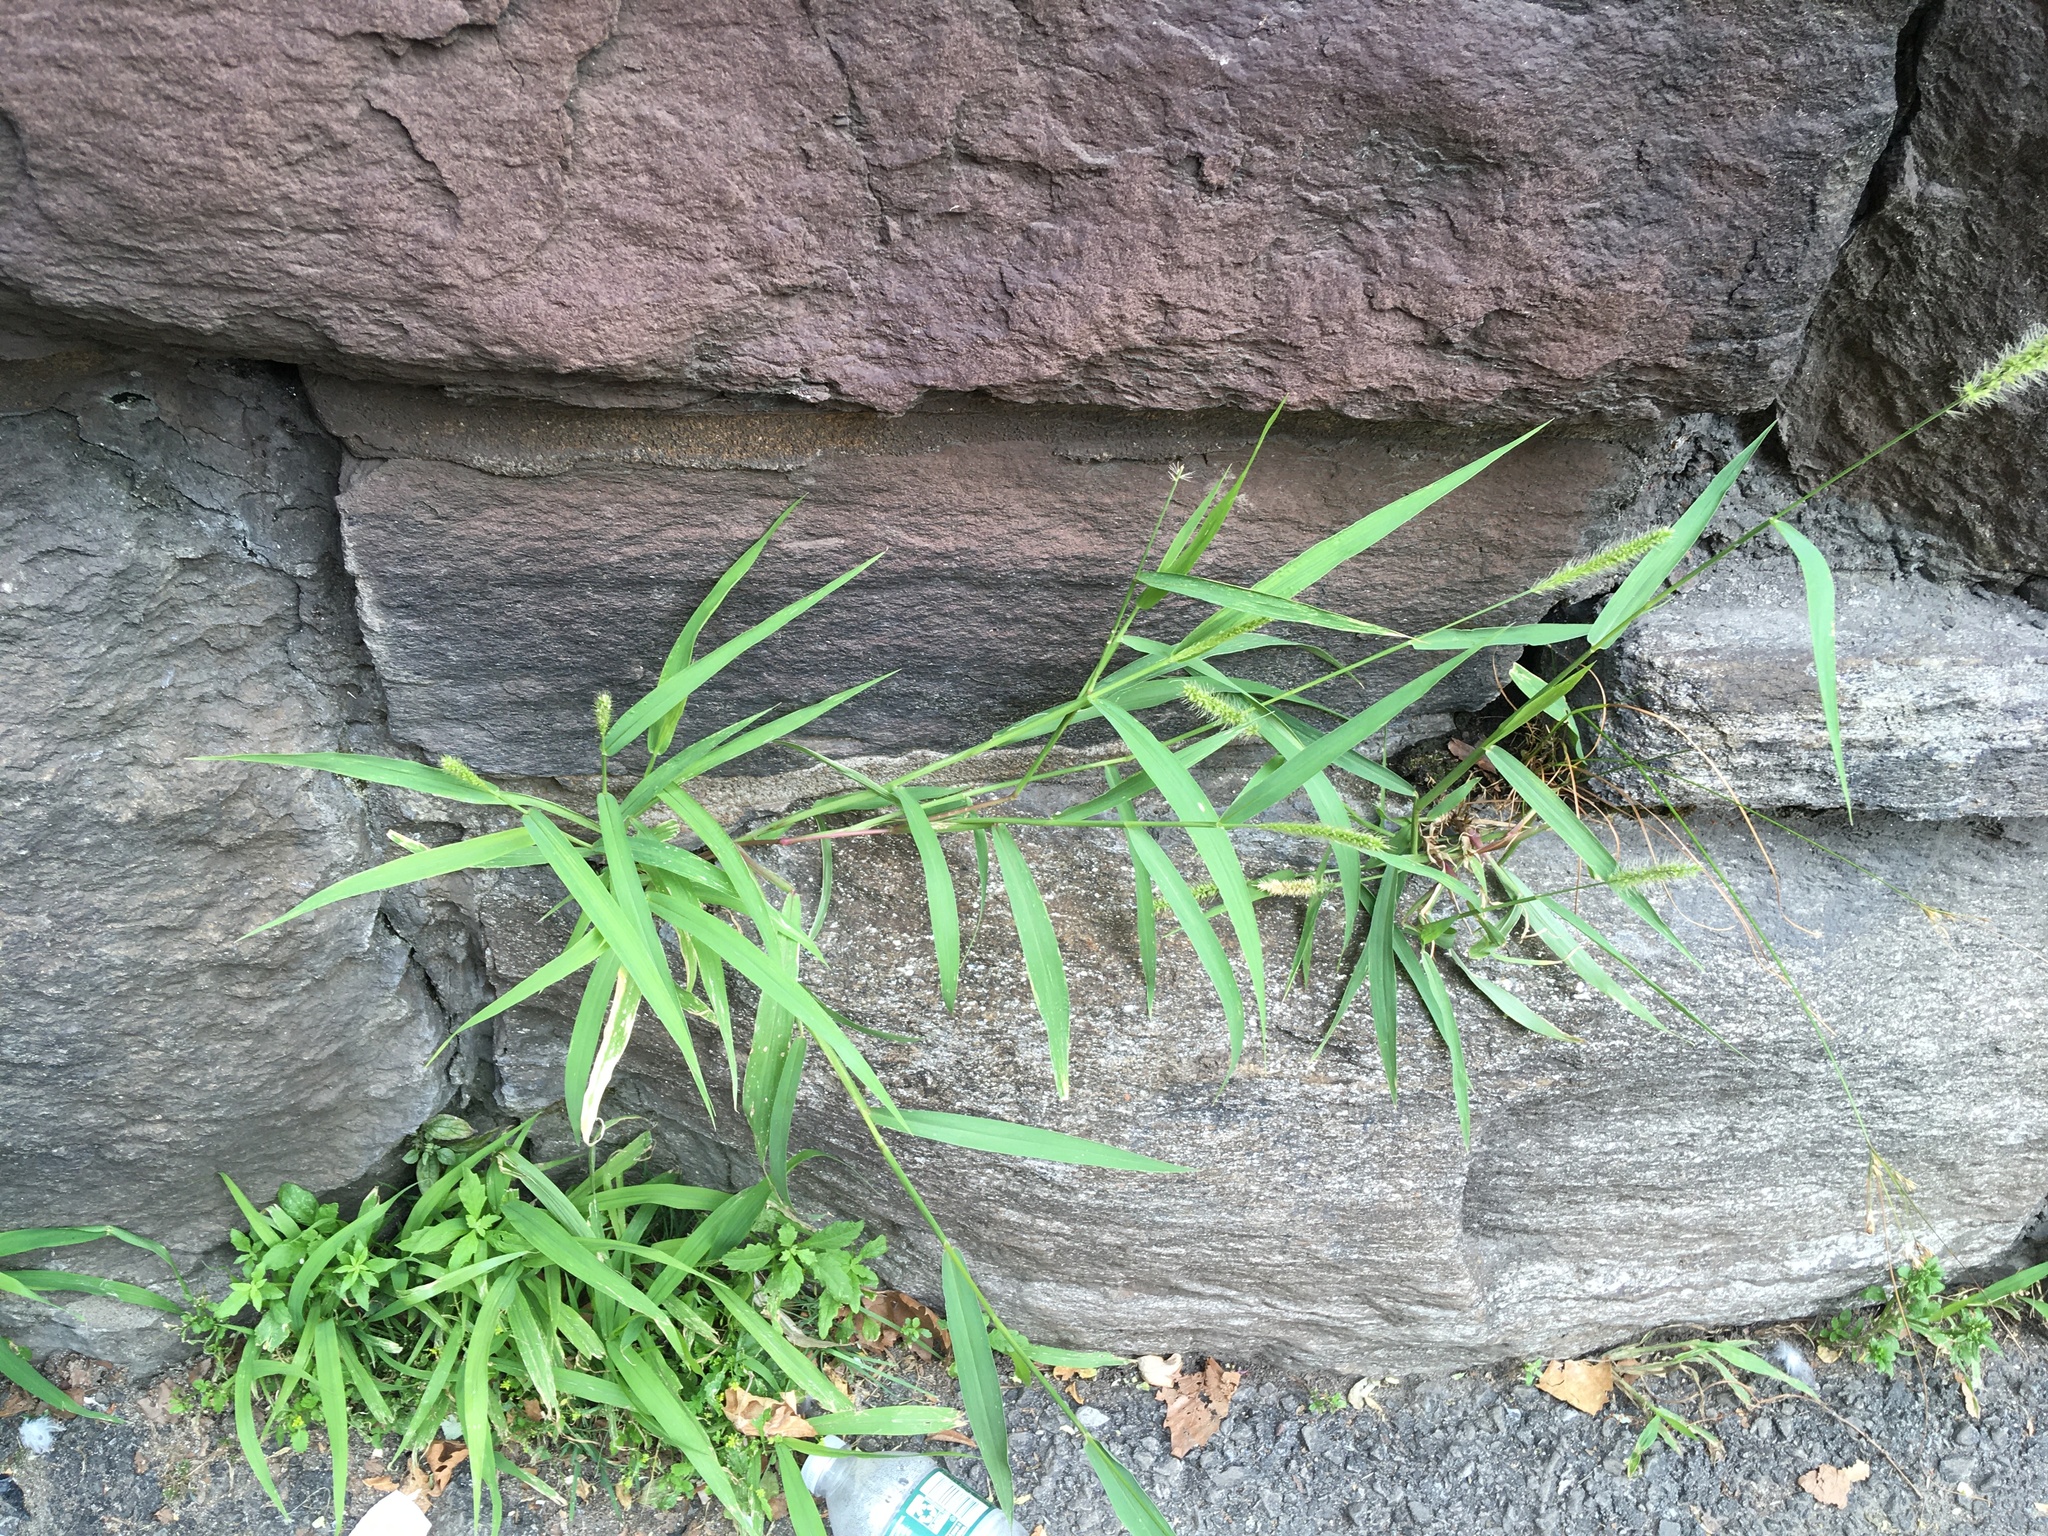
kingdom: Plantae
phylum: Tracheophyta
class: Liliopsida
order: Poales
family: Poaceae
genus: Setaria
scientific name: Setaria viridis
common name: Green bristlegrass
